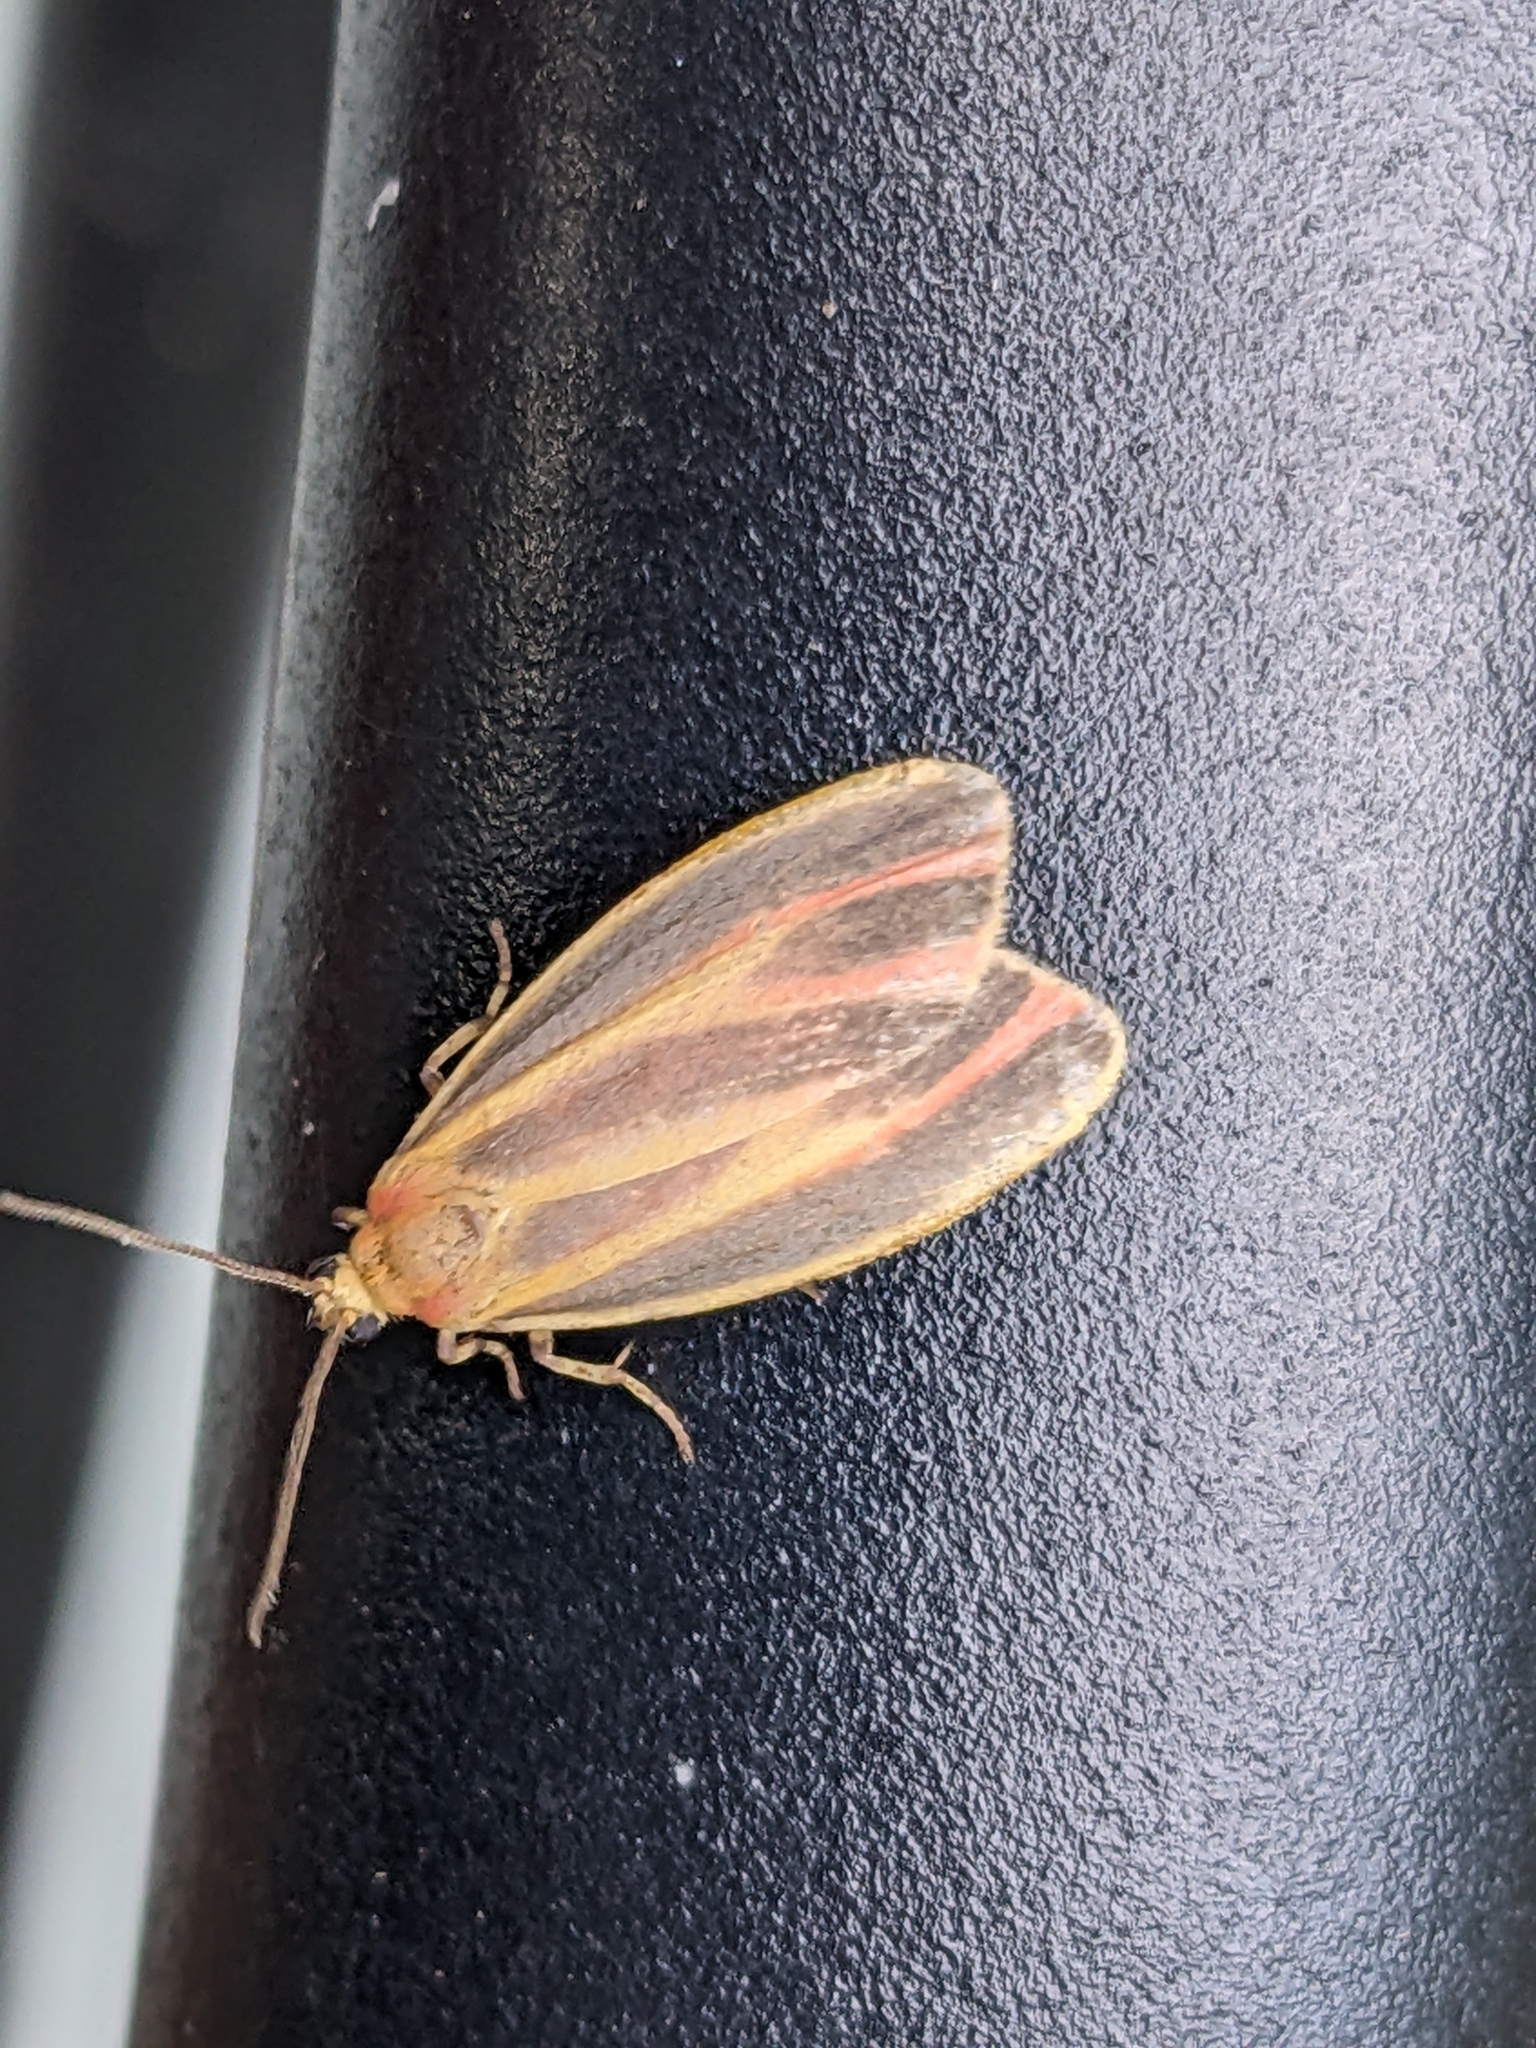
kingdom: Animalia
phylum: Arthropoda
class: Insecta
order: Lepidoptera
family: Erebidae
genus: Hypoprepia
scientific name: Hypoprepia fucosa
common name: Painted lichen moth
